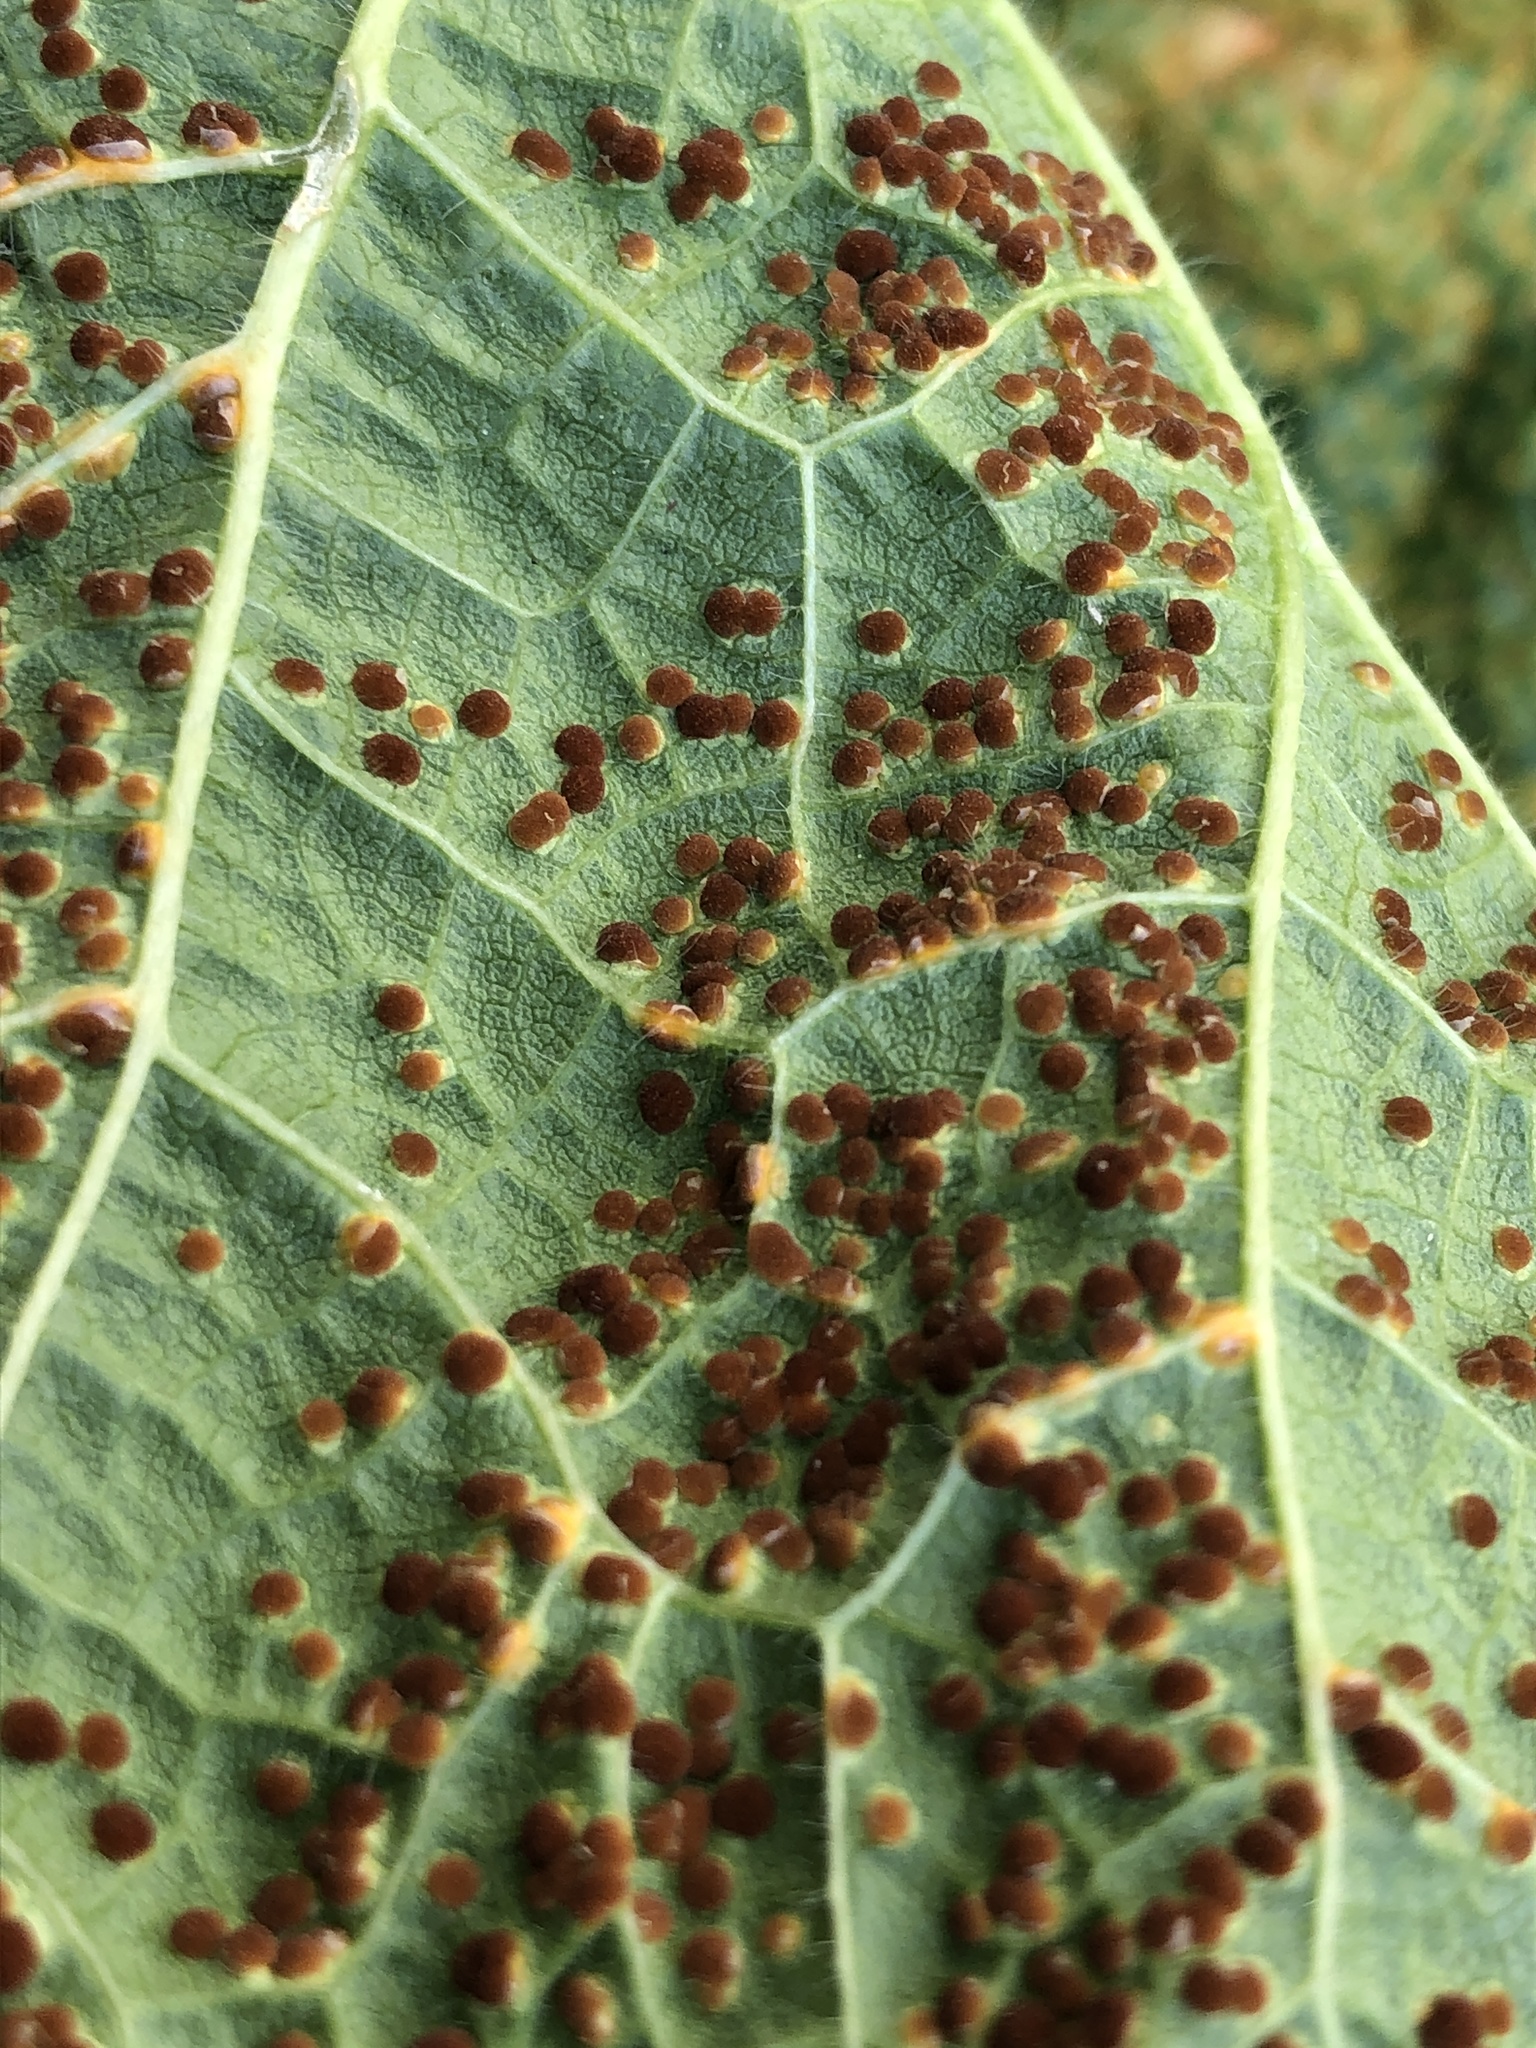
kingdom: Fungi
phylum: Basidiomycota
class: Pucciniomycetes
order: Pucciniales
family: Pucciniaceae
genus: Puccinia
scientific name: Puccinia malvacearum
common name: Hollyhock rust
